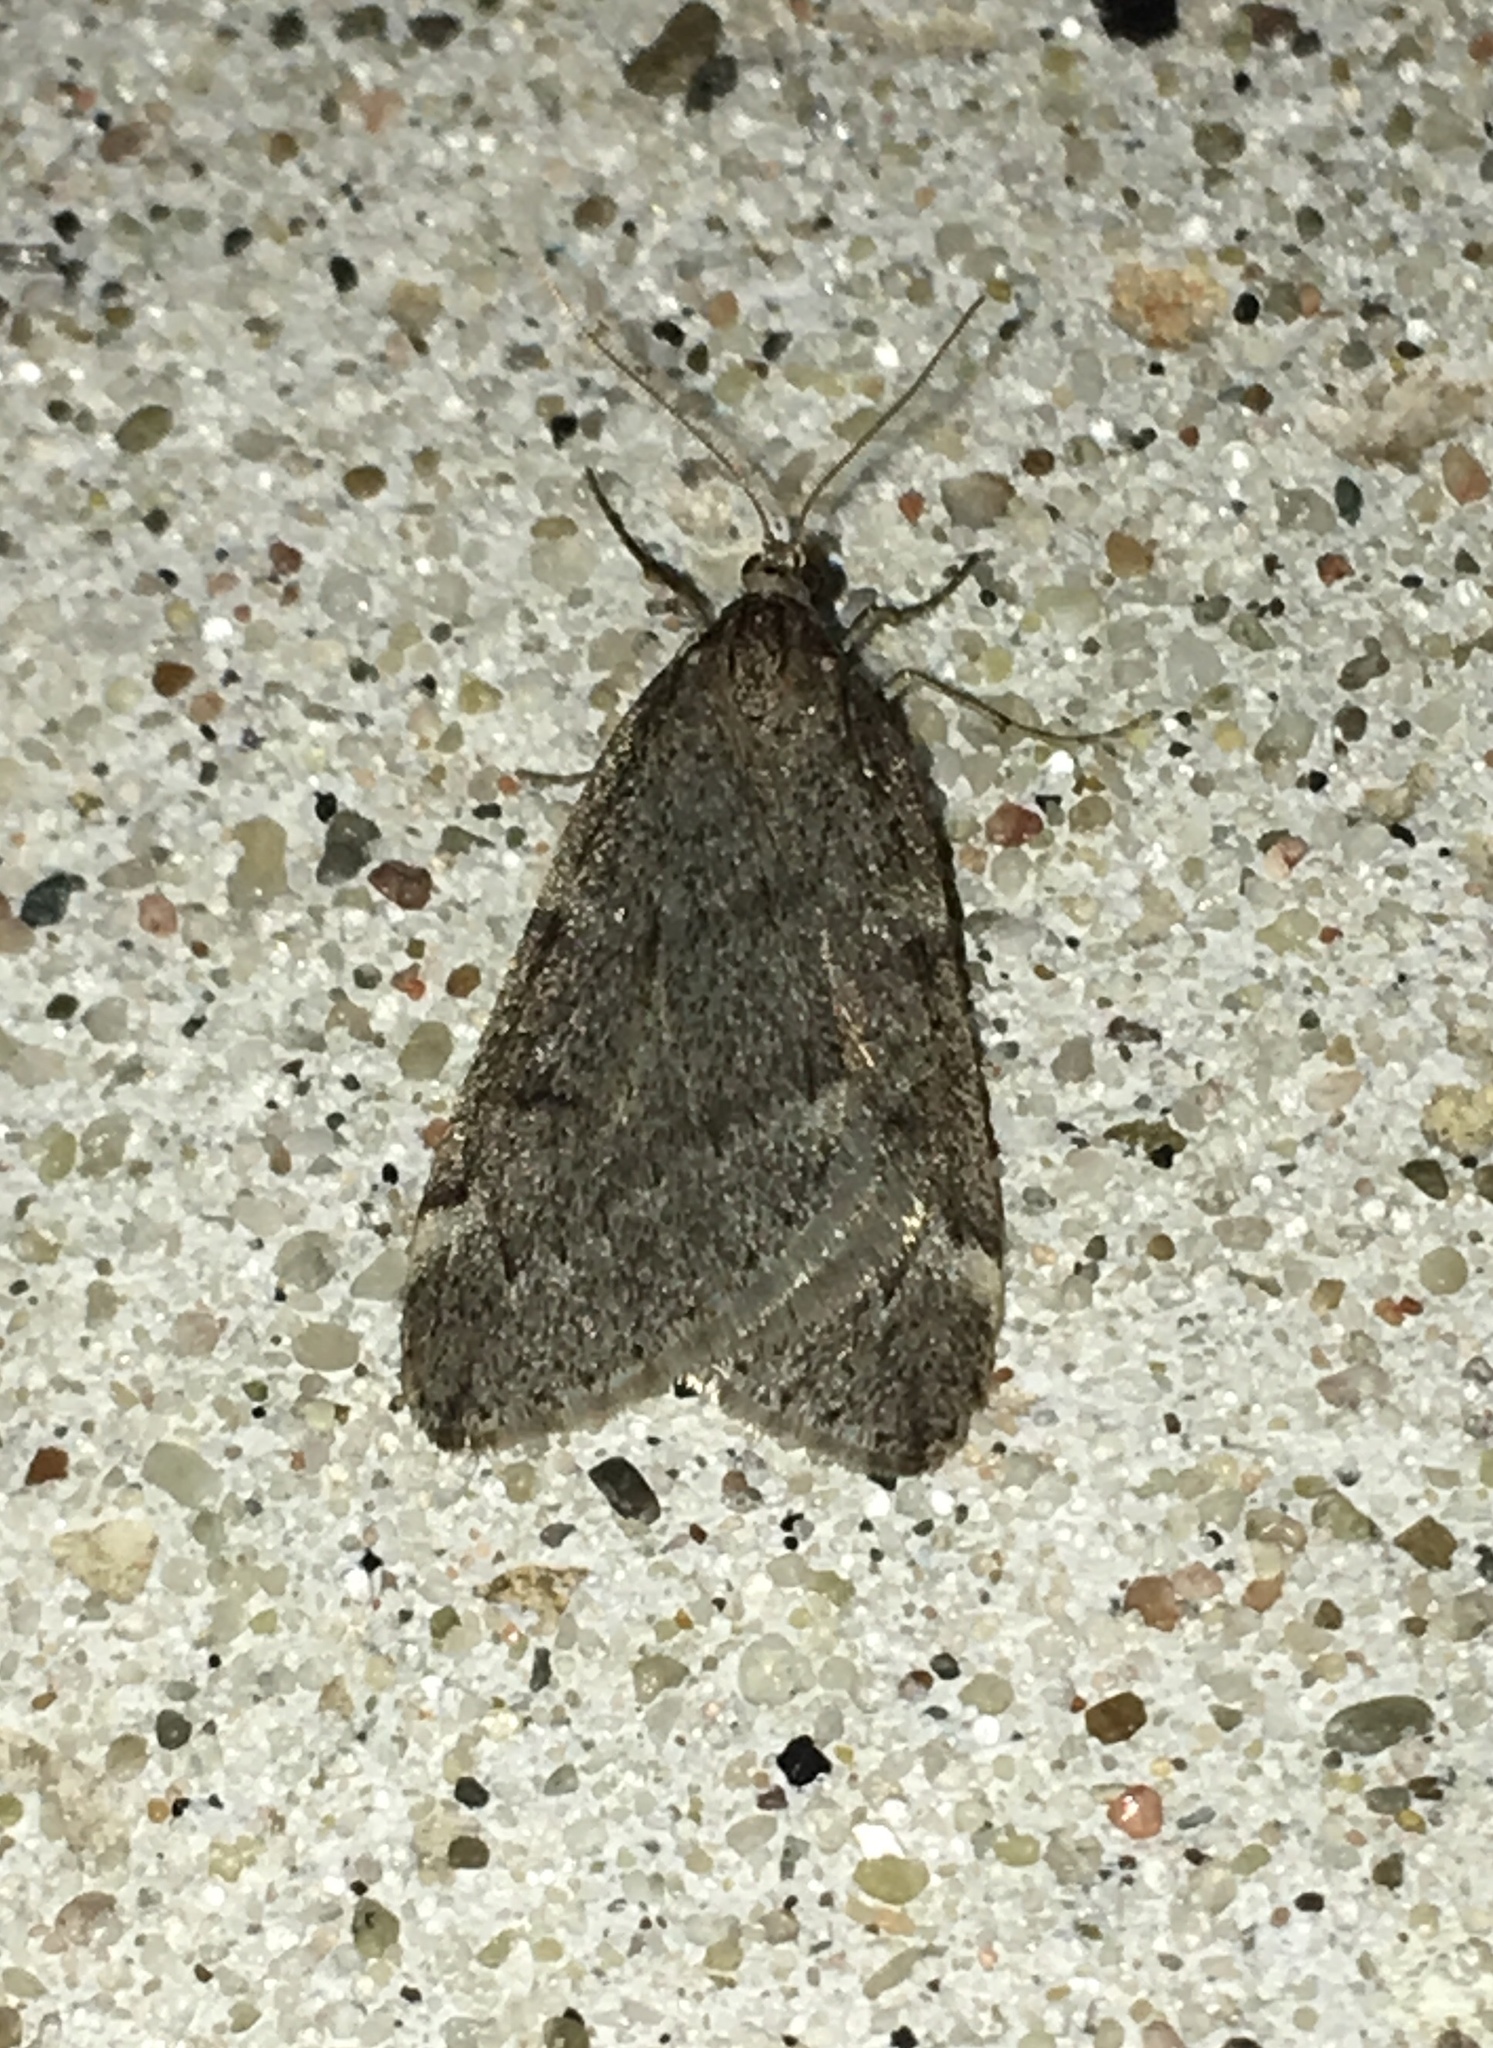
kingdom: Animalia
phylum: Arthropoda
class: Insecta
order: Lepidoptera
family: Geometridae
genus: Alsophila
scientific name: Alsophila pometaria
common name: Fall cankerworm
